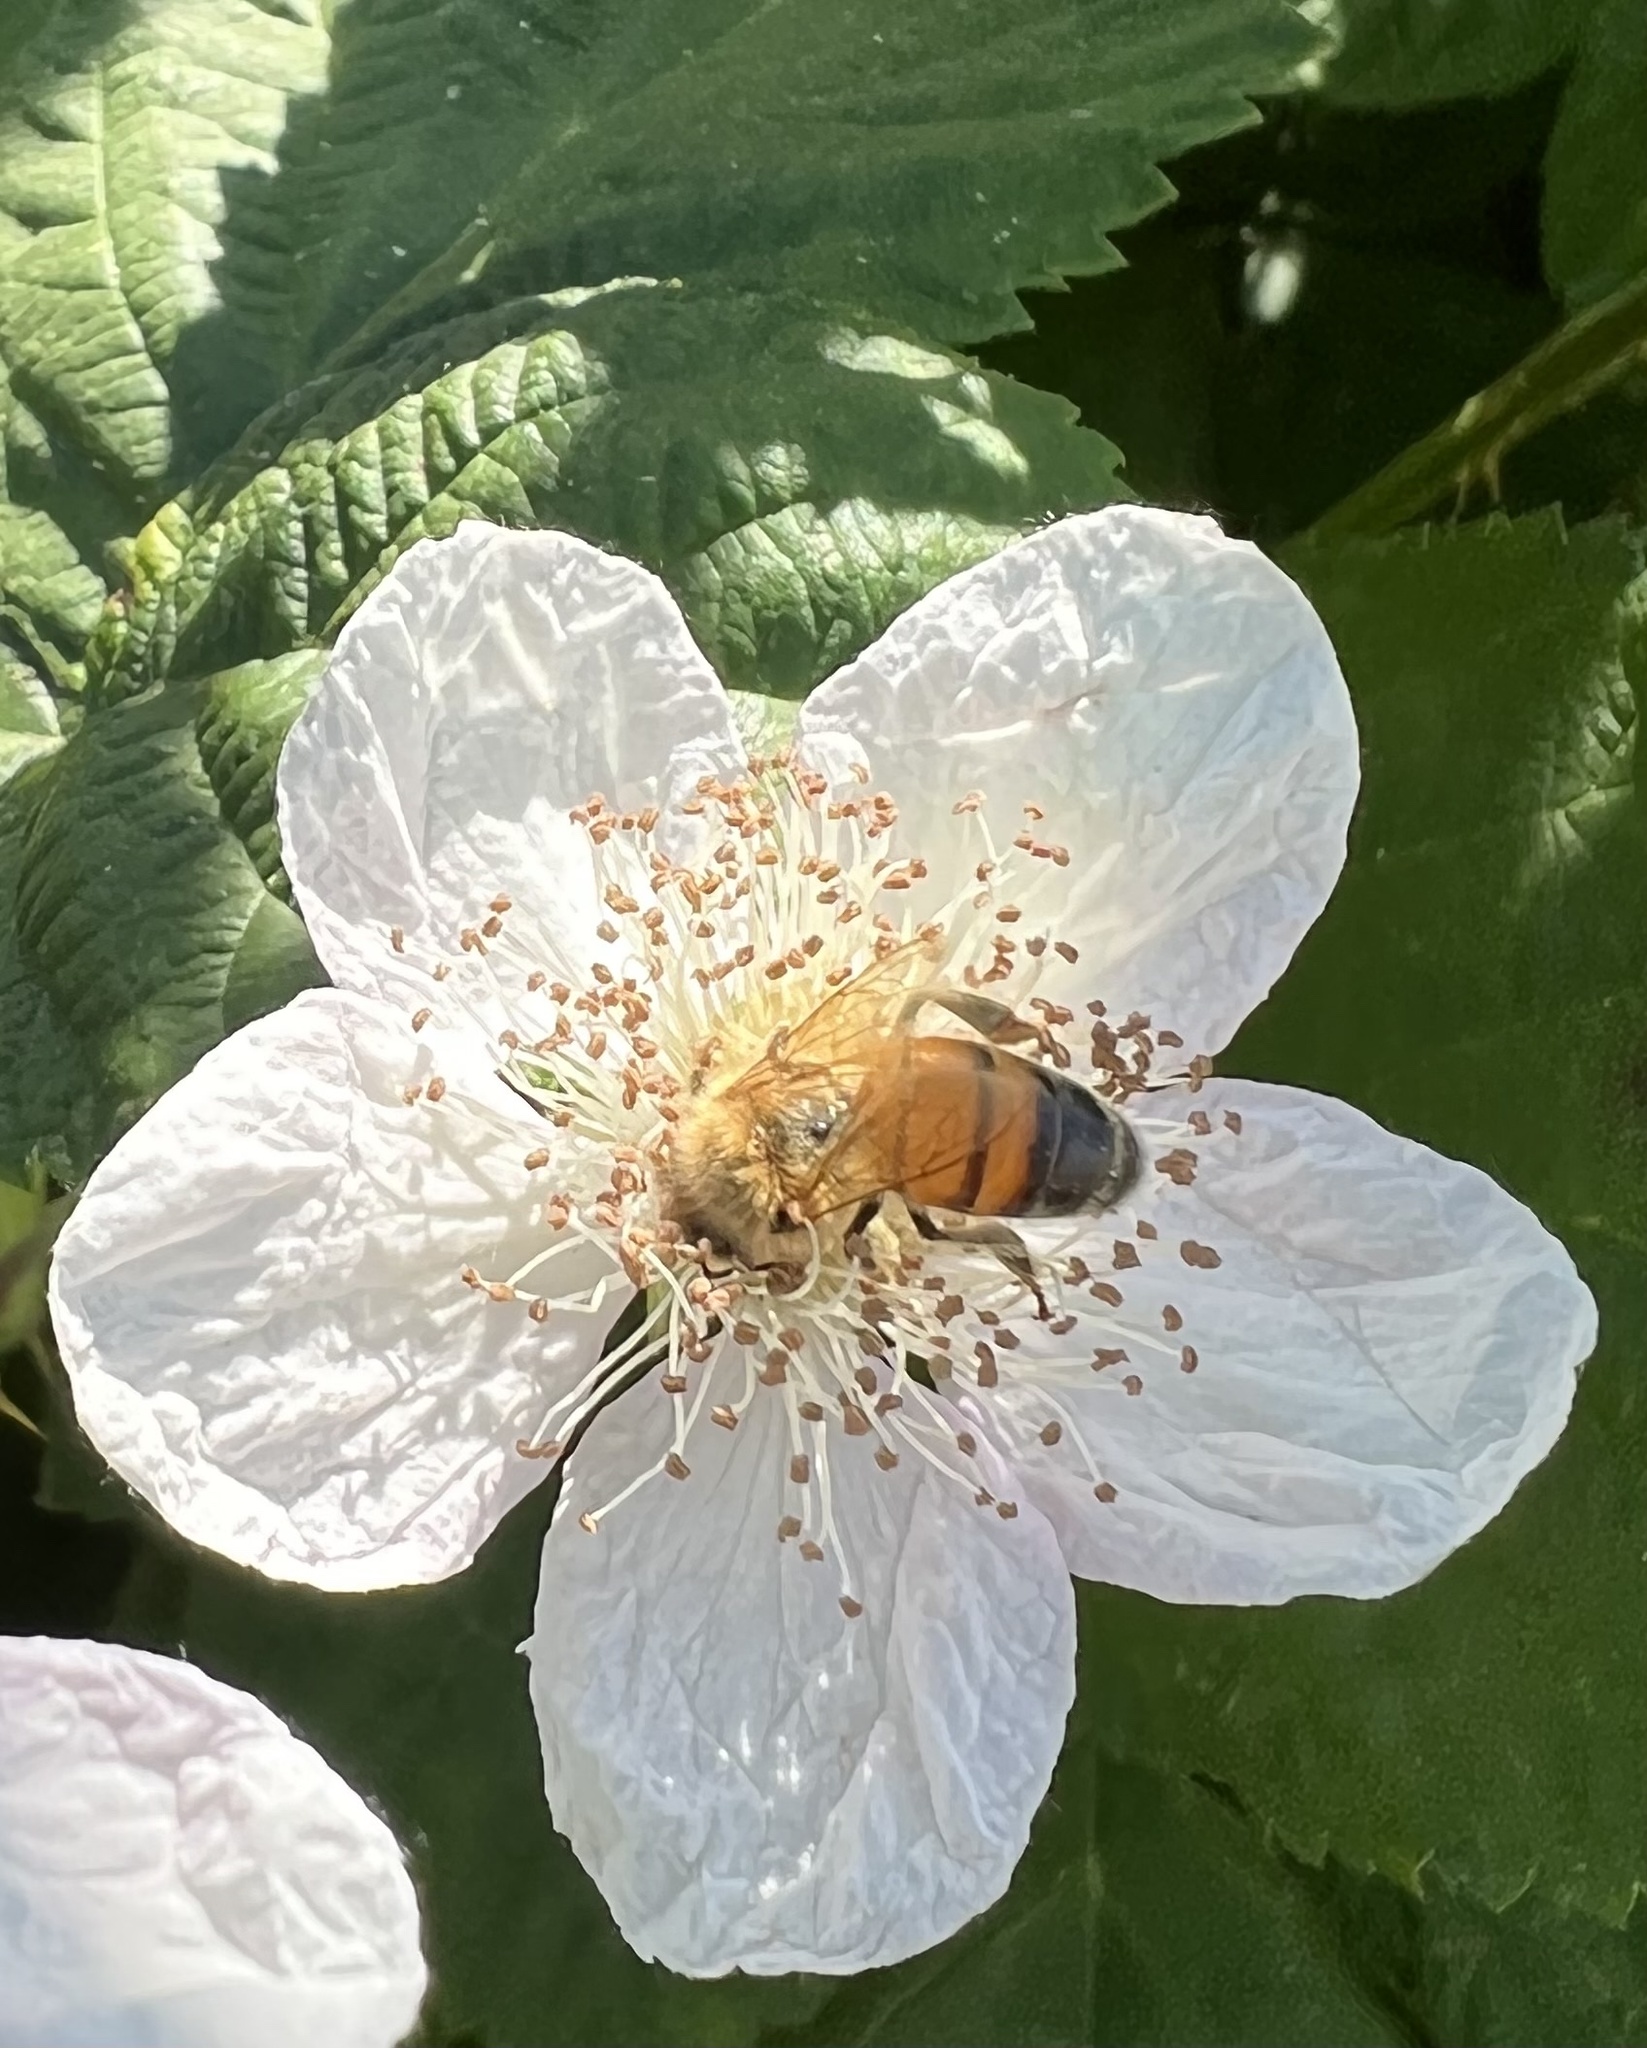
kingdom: Animalia
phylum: Arthropoda
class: Insecta
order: Hymenoptera
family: Apidae
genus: Apis
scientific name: Apis mellifera
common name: Honey bee
